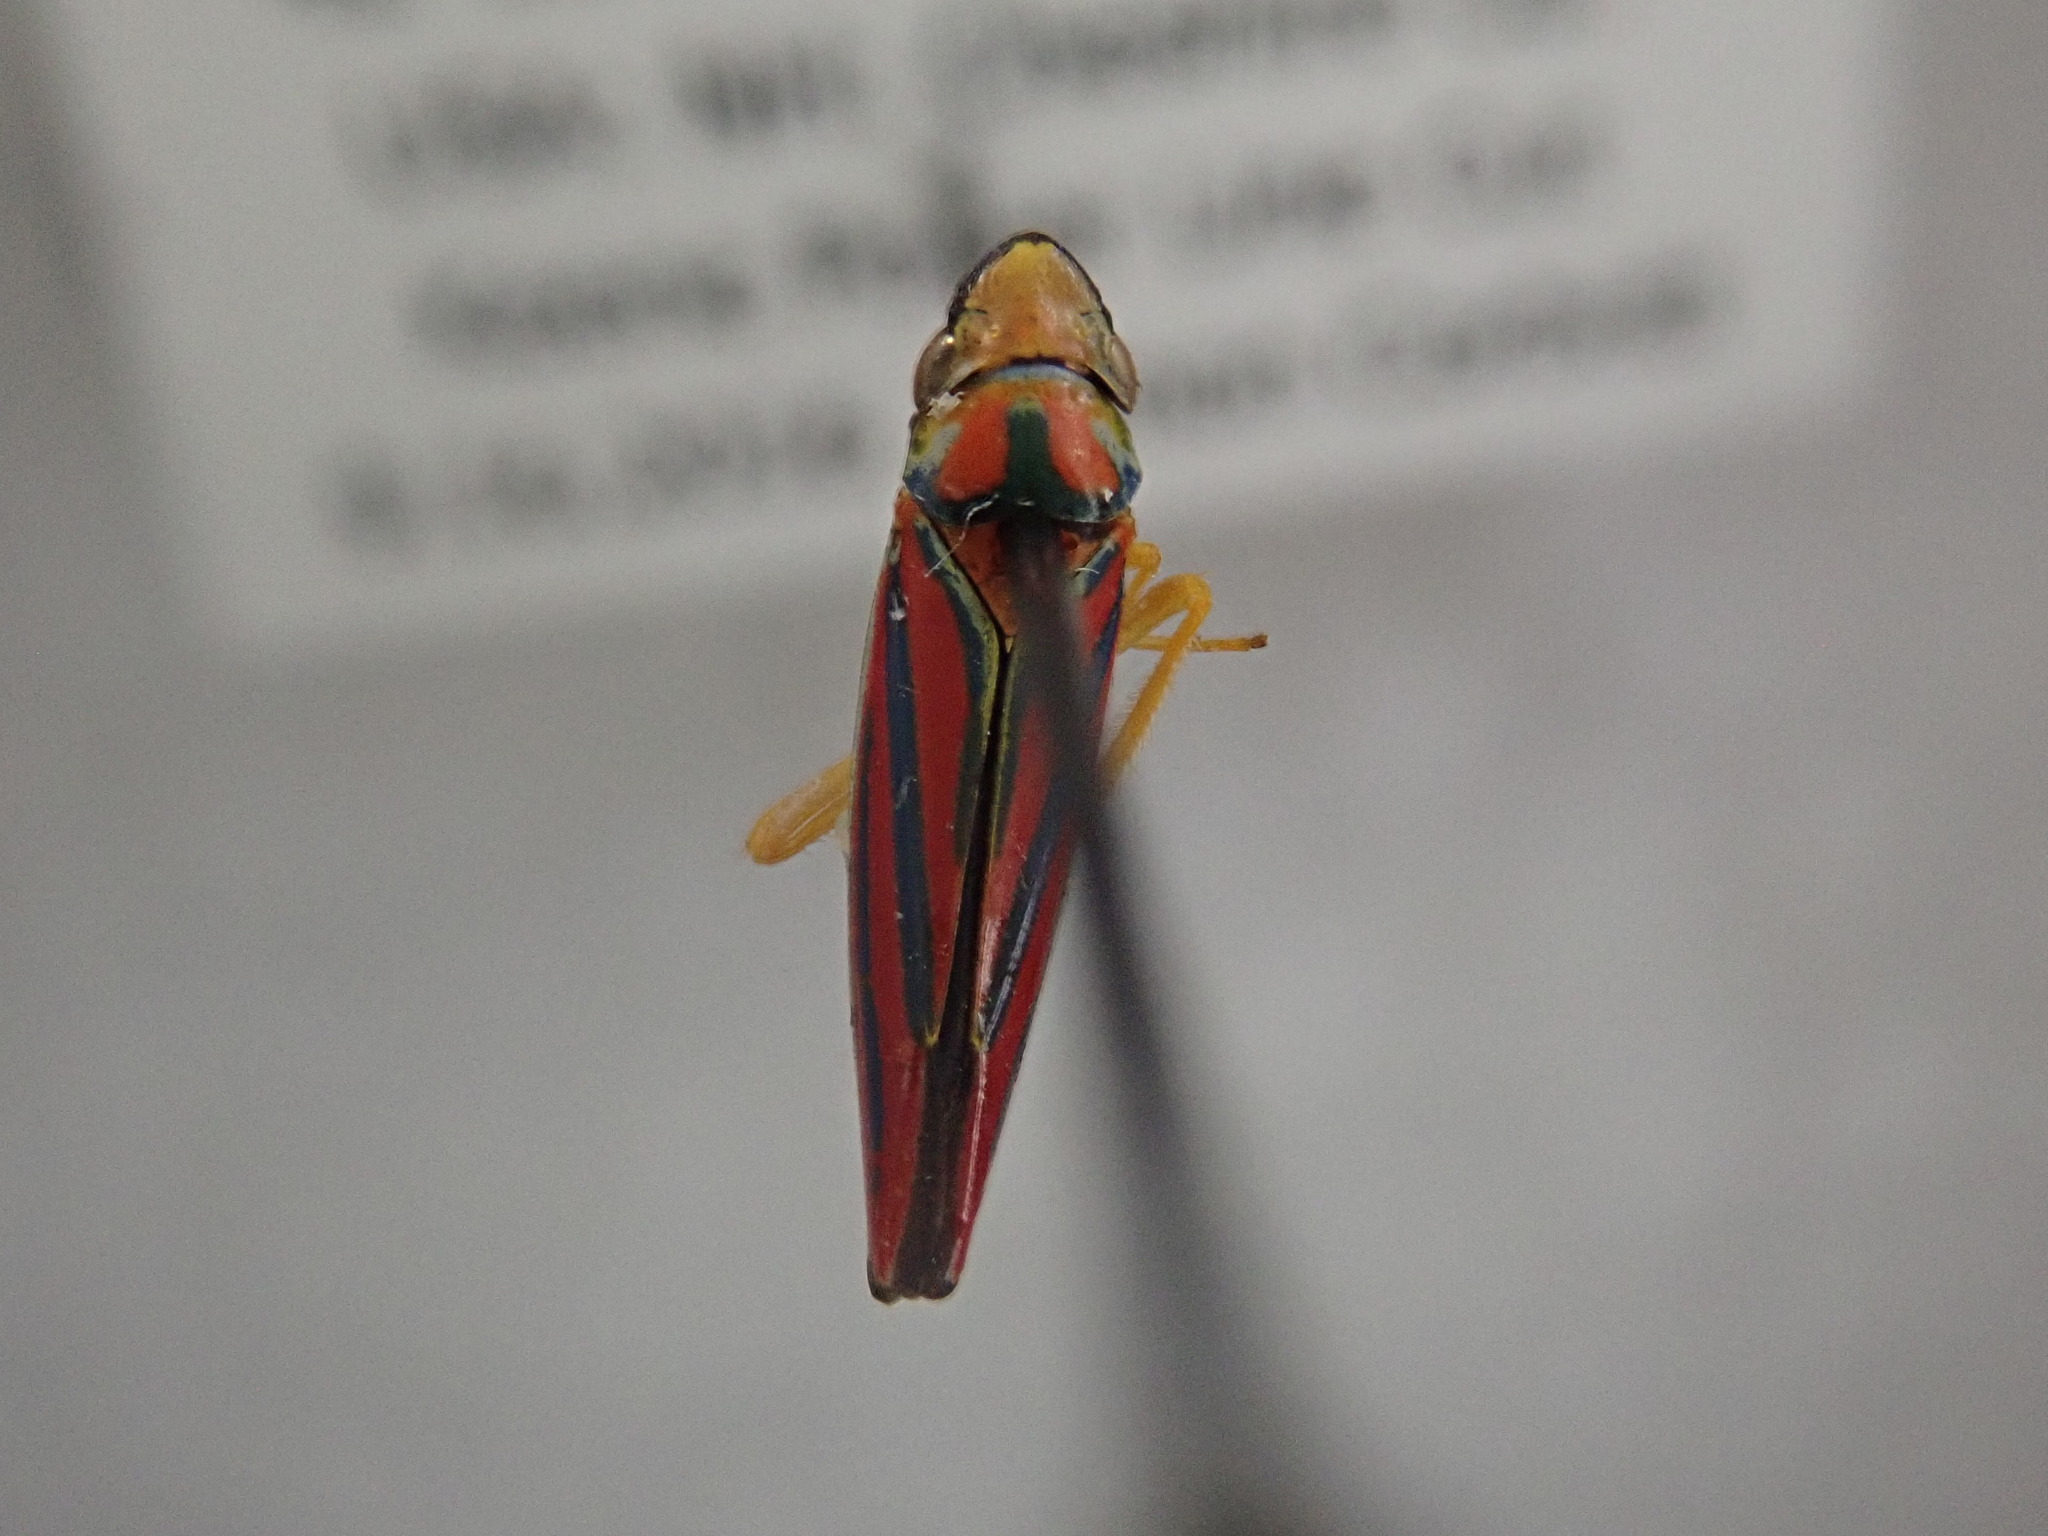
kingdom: Animalia
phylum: Arthropoda
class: Insecta
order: Hemiptera
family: Cicadellidae
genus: Graphocephala
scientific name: Graphocephala coccinea
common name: Candy-striped leafhopper
